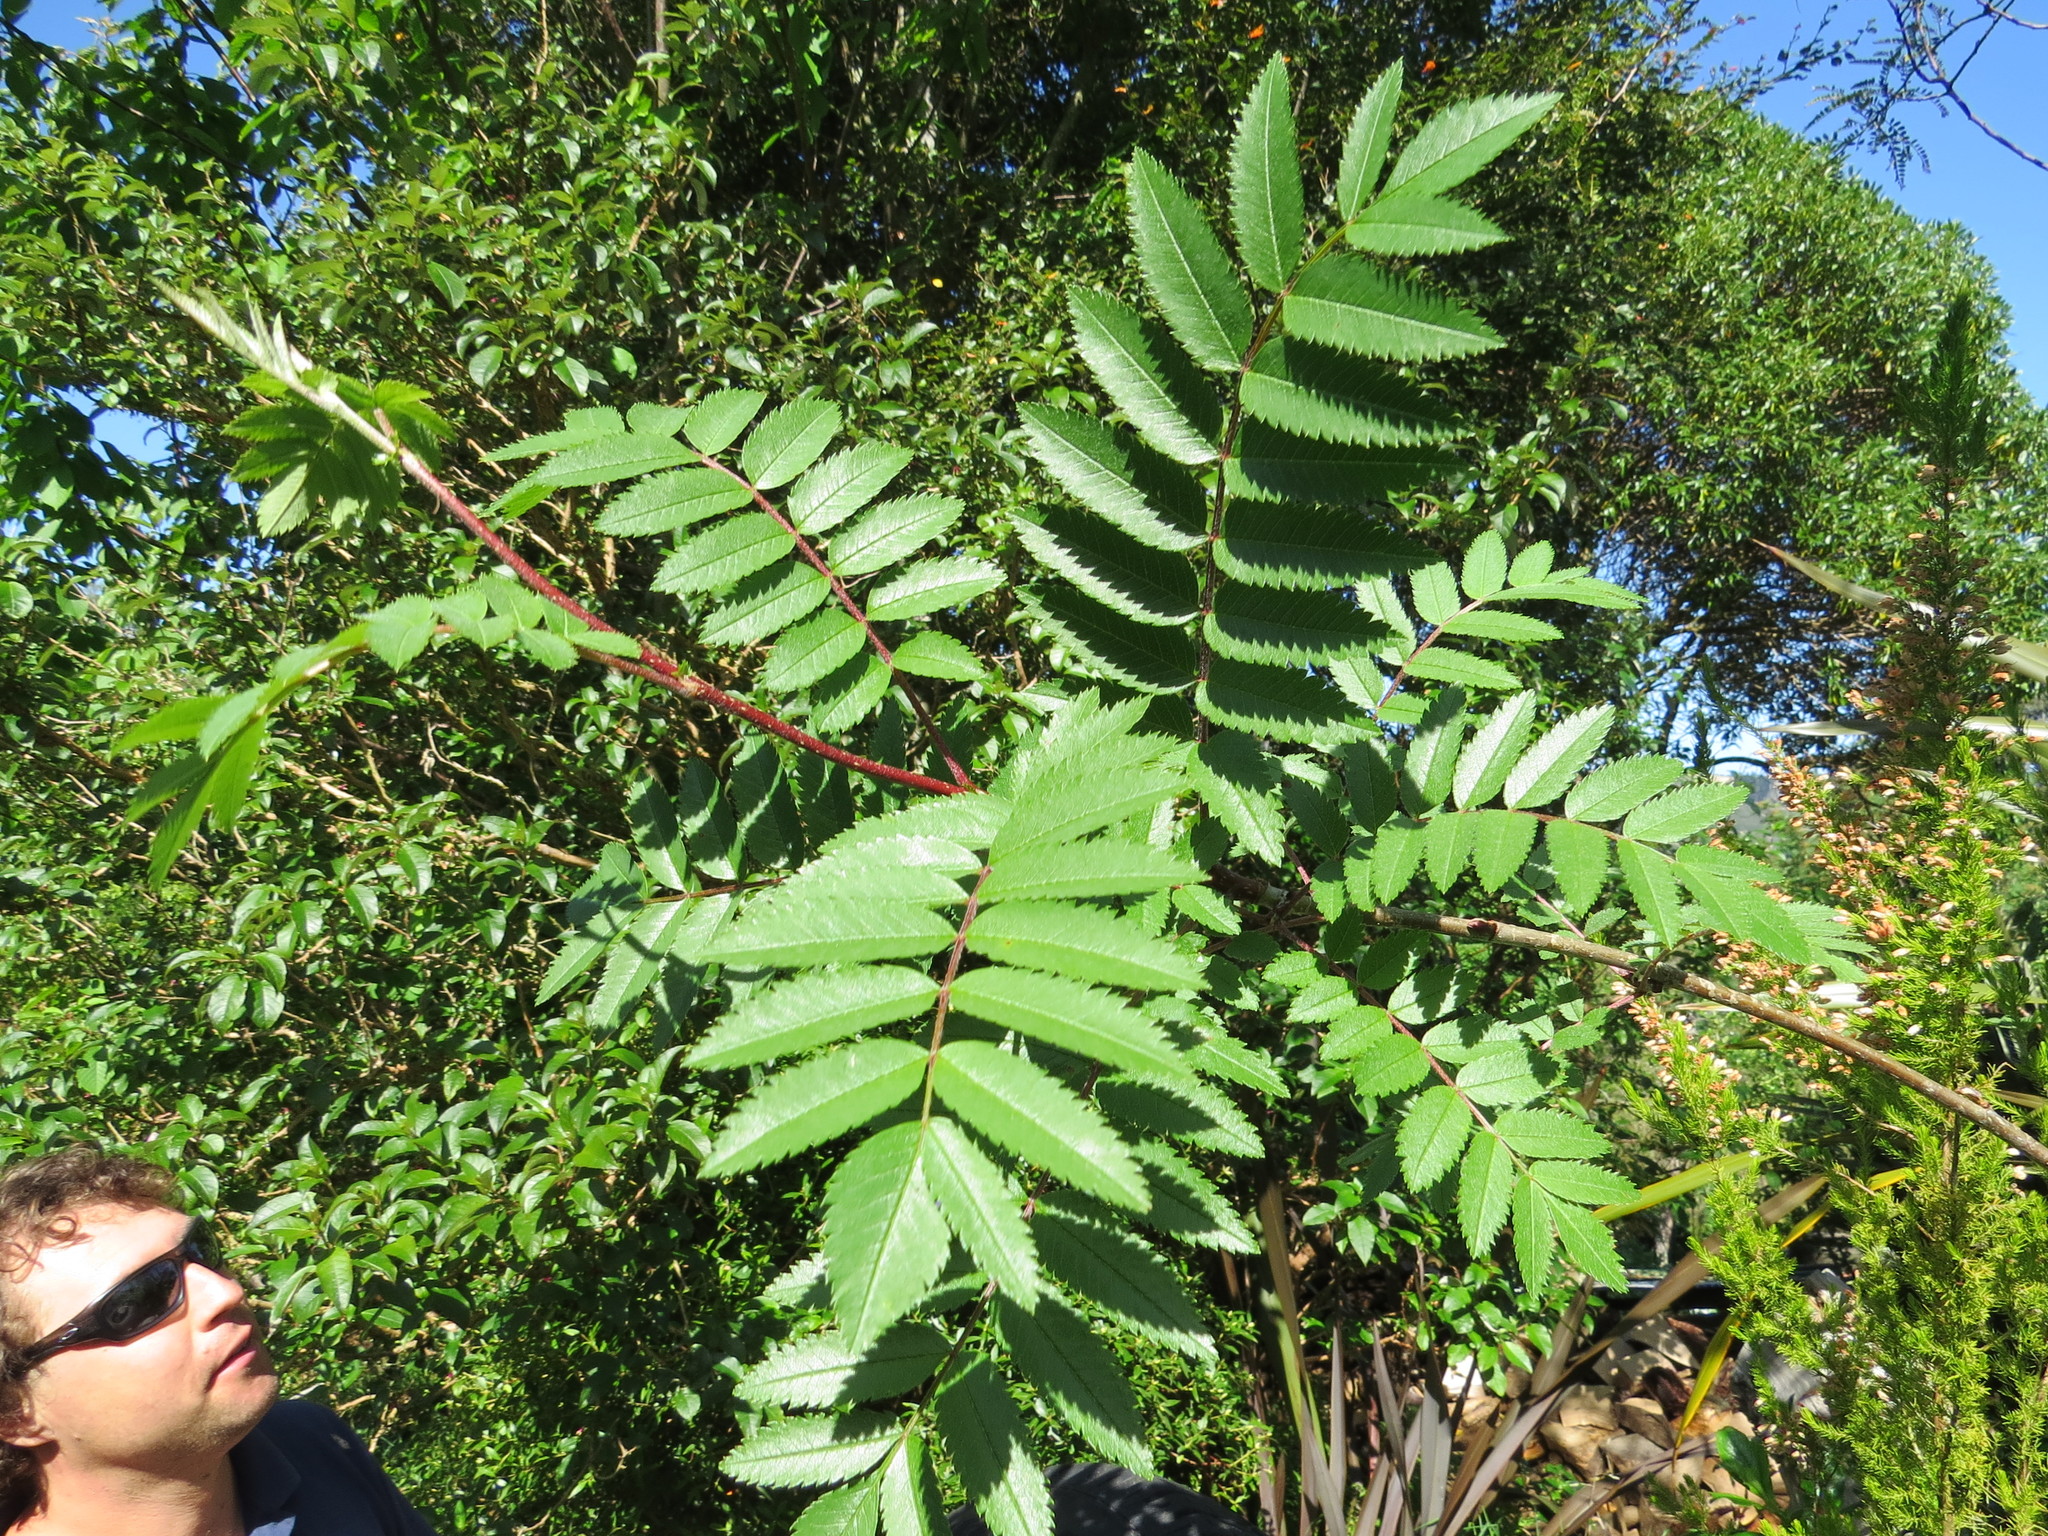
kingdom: Plantae
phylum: Tracheophyta
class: Magnoliopsida
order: Rosales
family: Rosaceae
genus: Sorbus
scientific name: Sorbus aucuparia
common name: Rowan
